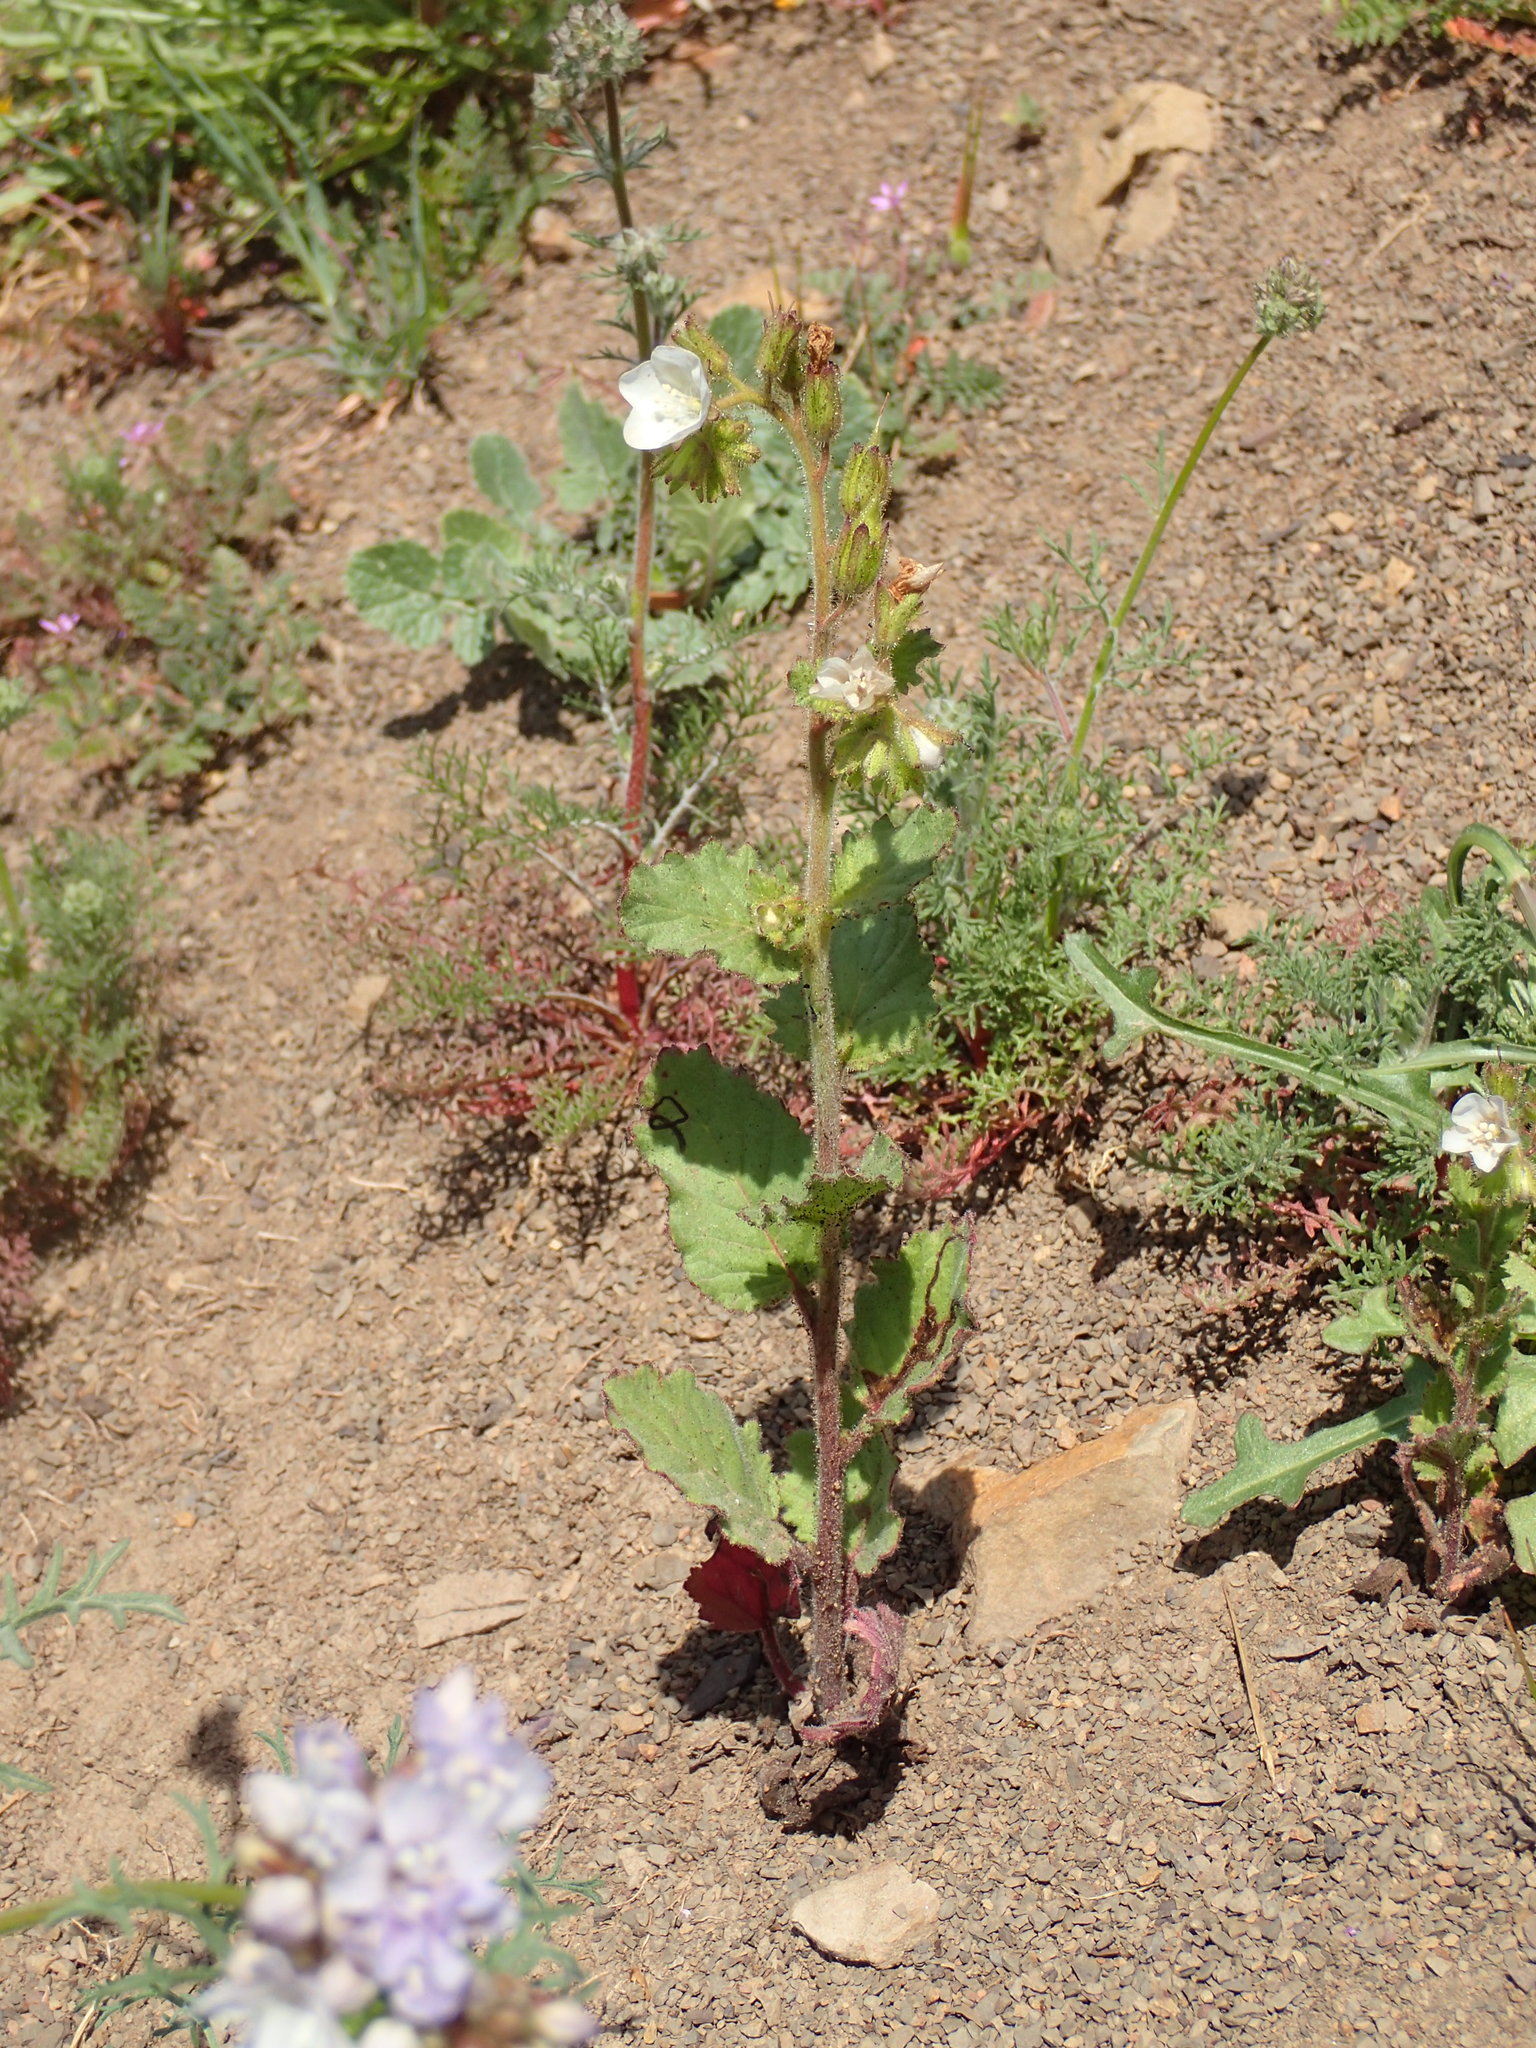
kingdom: Plantae
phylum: Tracheophyta
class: Magnoliopsida
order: Boraginales
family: Hydrophyllaceae
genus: Phacelia
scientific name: Phacelia viscida
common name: Sticky phacelia
